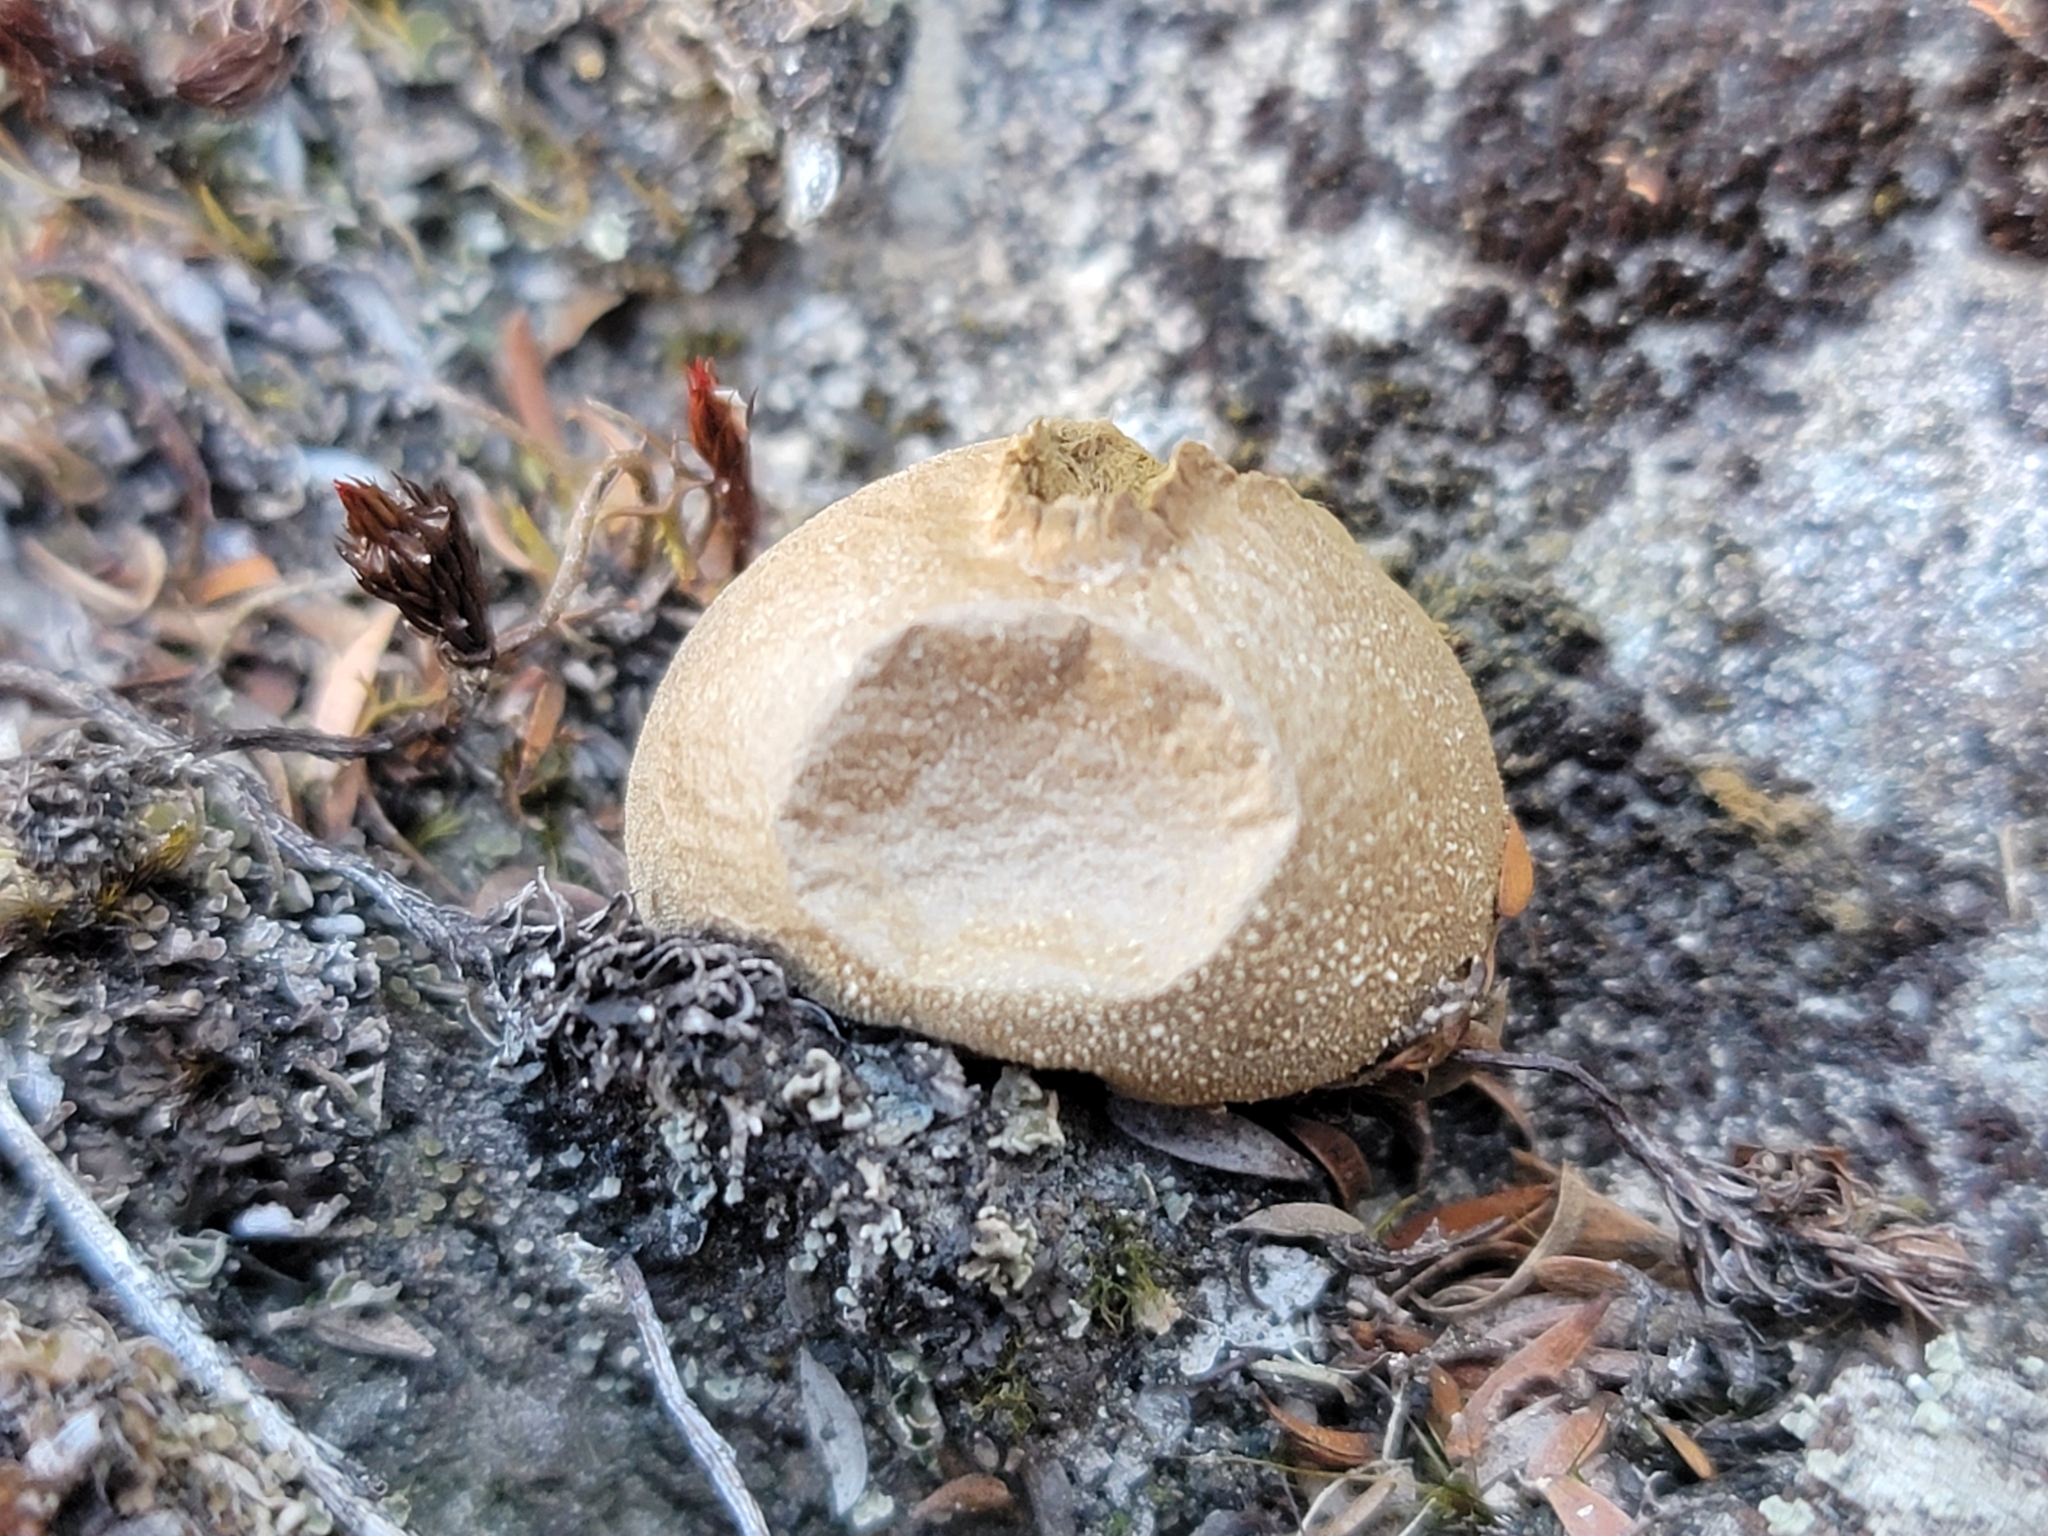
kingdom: Fungi
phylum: Basidiomycota
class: Agaricomycetes
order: Agaricales
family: Lycoperdaceae
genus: Lycoperdon
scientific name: Lycoperdon pratense
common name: Meadow puffball
